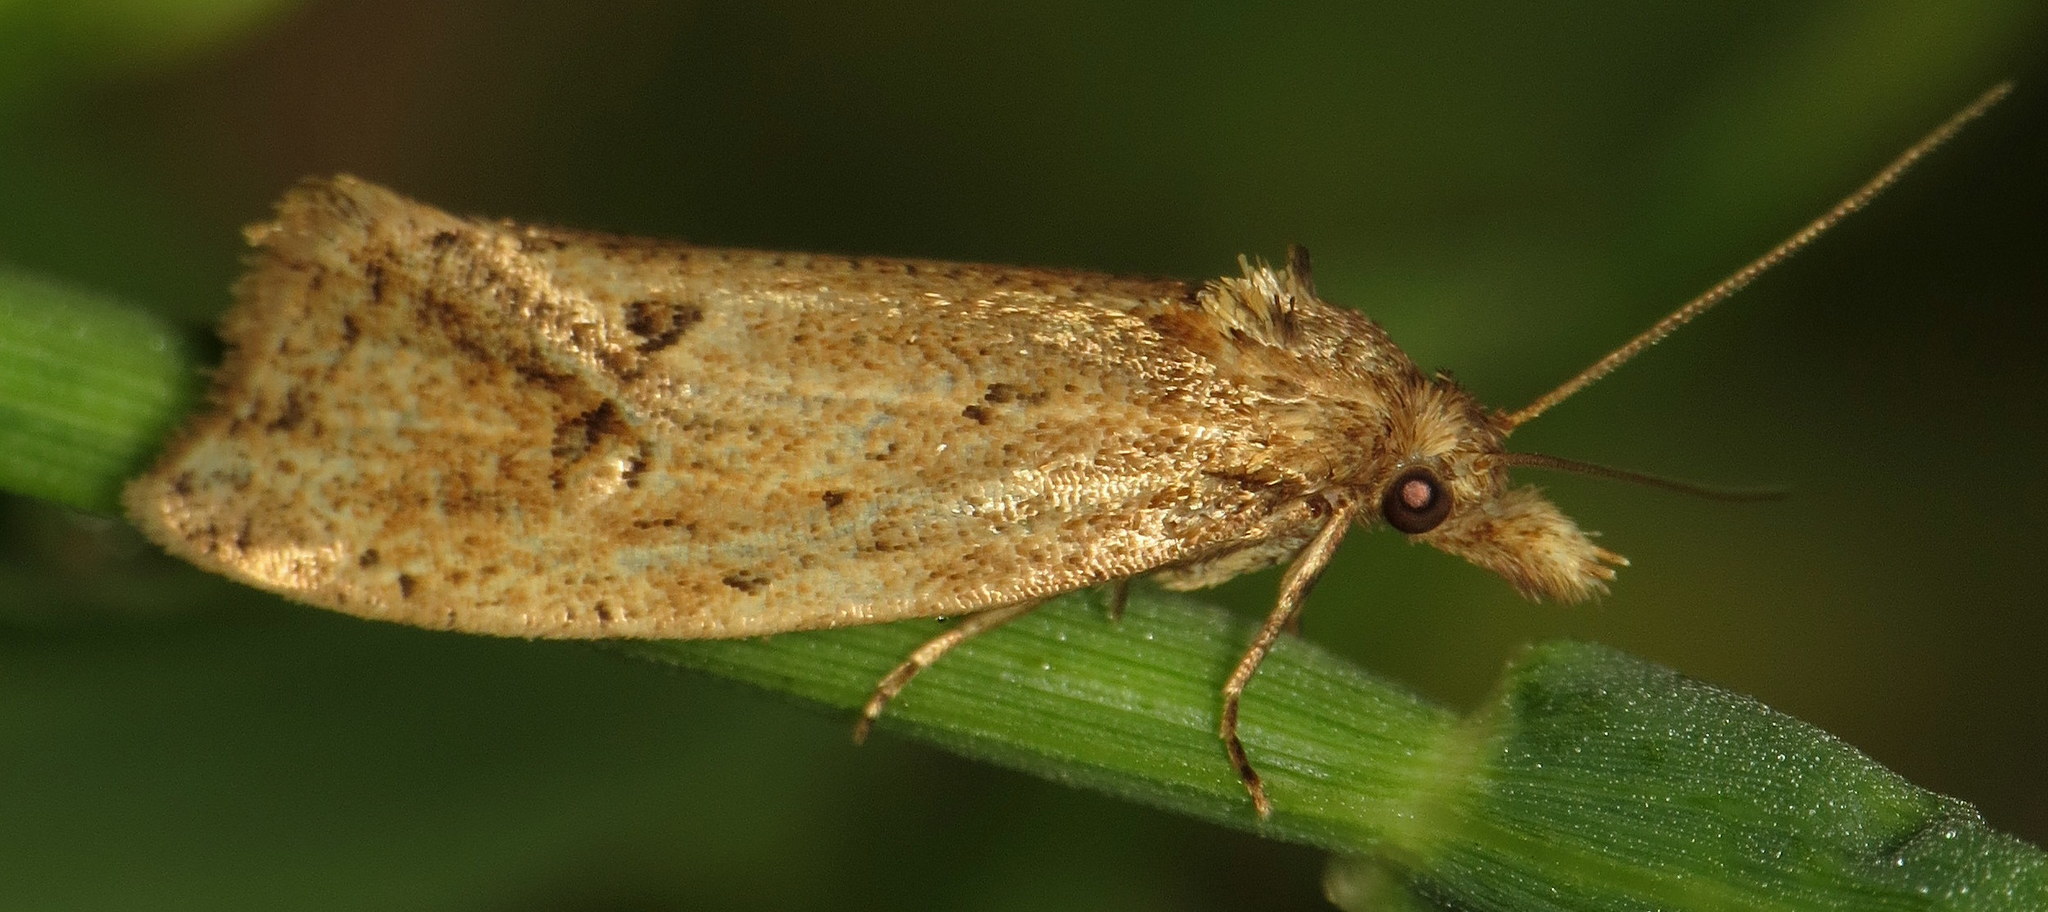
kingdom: Animalia
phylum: Arthropoda
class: Insecta
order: Lepidoptera
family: Tortricidae
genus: Aethes
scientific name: Aethes atomosana
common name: Two-spotted aethes
